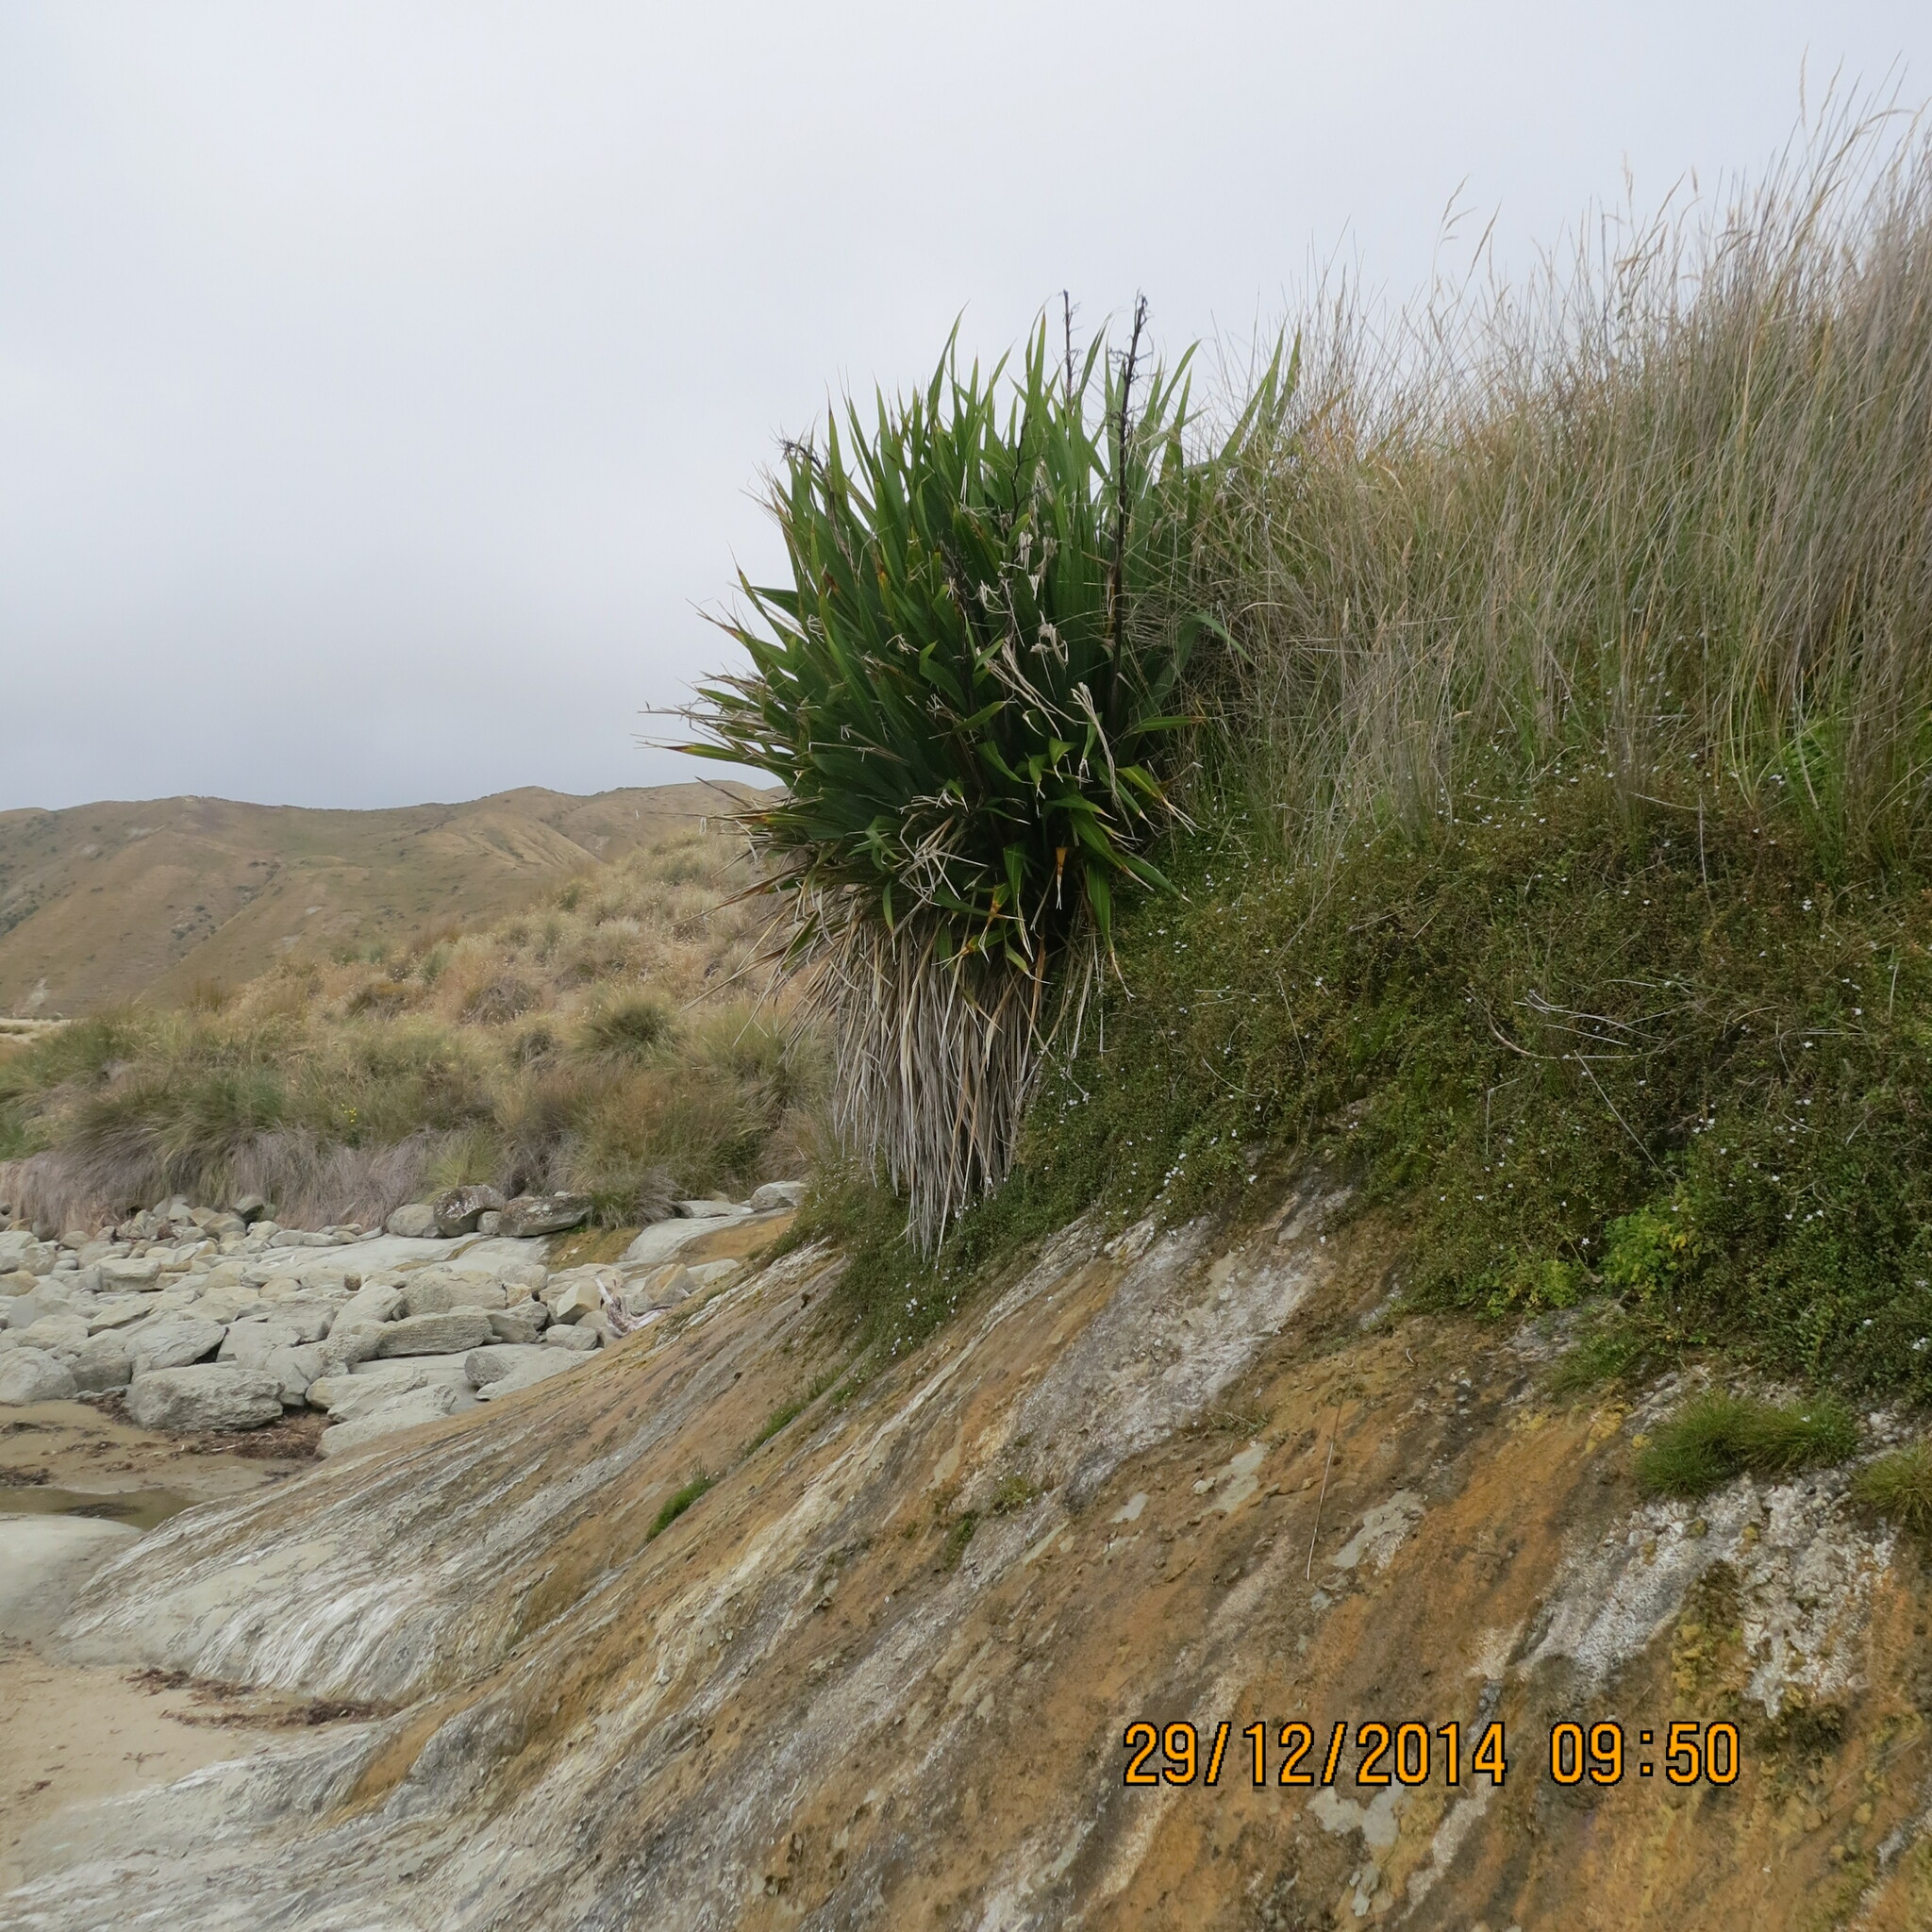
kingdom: Plantae
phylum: Tracheophyta
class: Magnoliopsida
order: Ericales
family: Primulaceae
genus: Samolus
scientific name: Samolus repens
